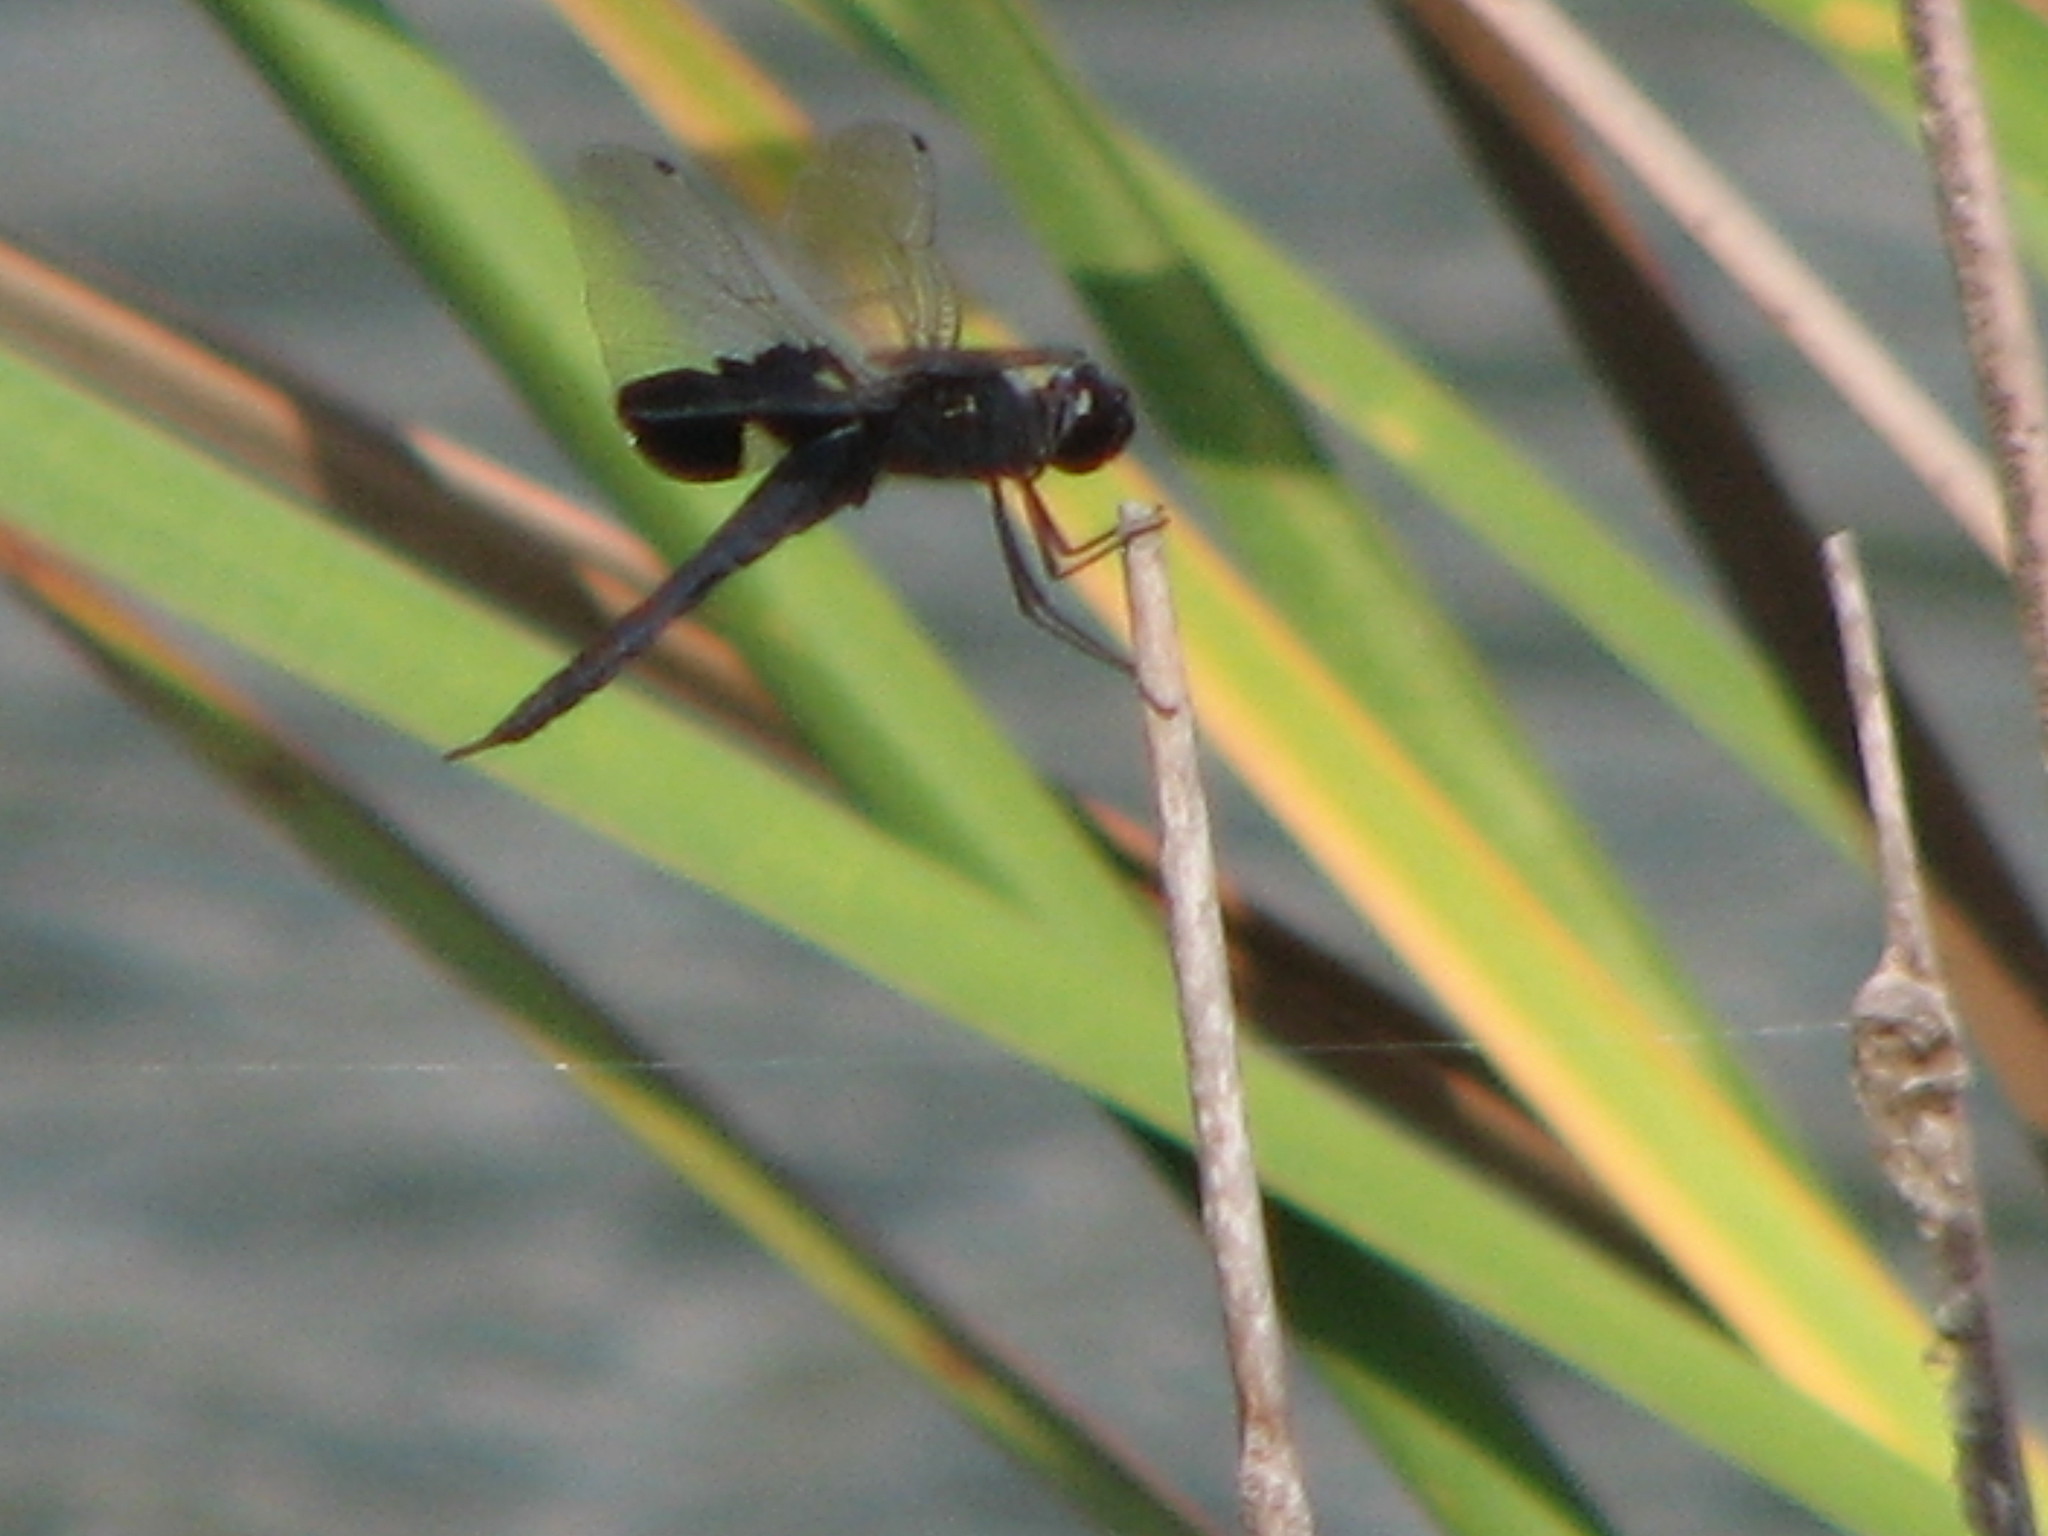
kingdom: Animalia
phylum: Arthropoda
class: Insecta
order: Odonata
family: Libellulidae
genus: Tramea
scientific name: Tramea lacerata
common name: Black saddlebags
